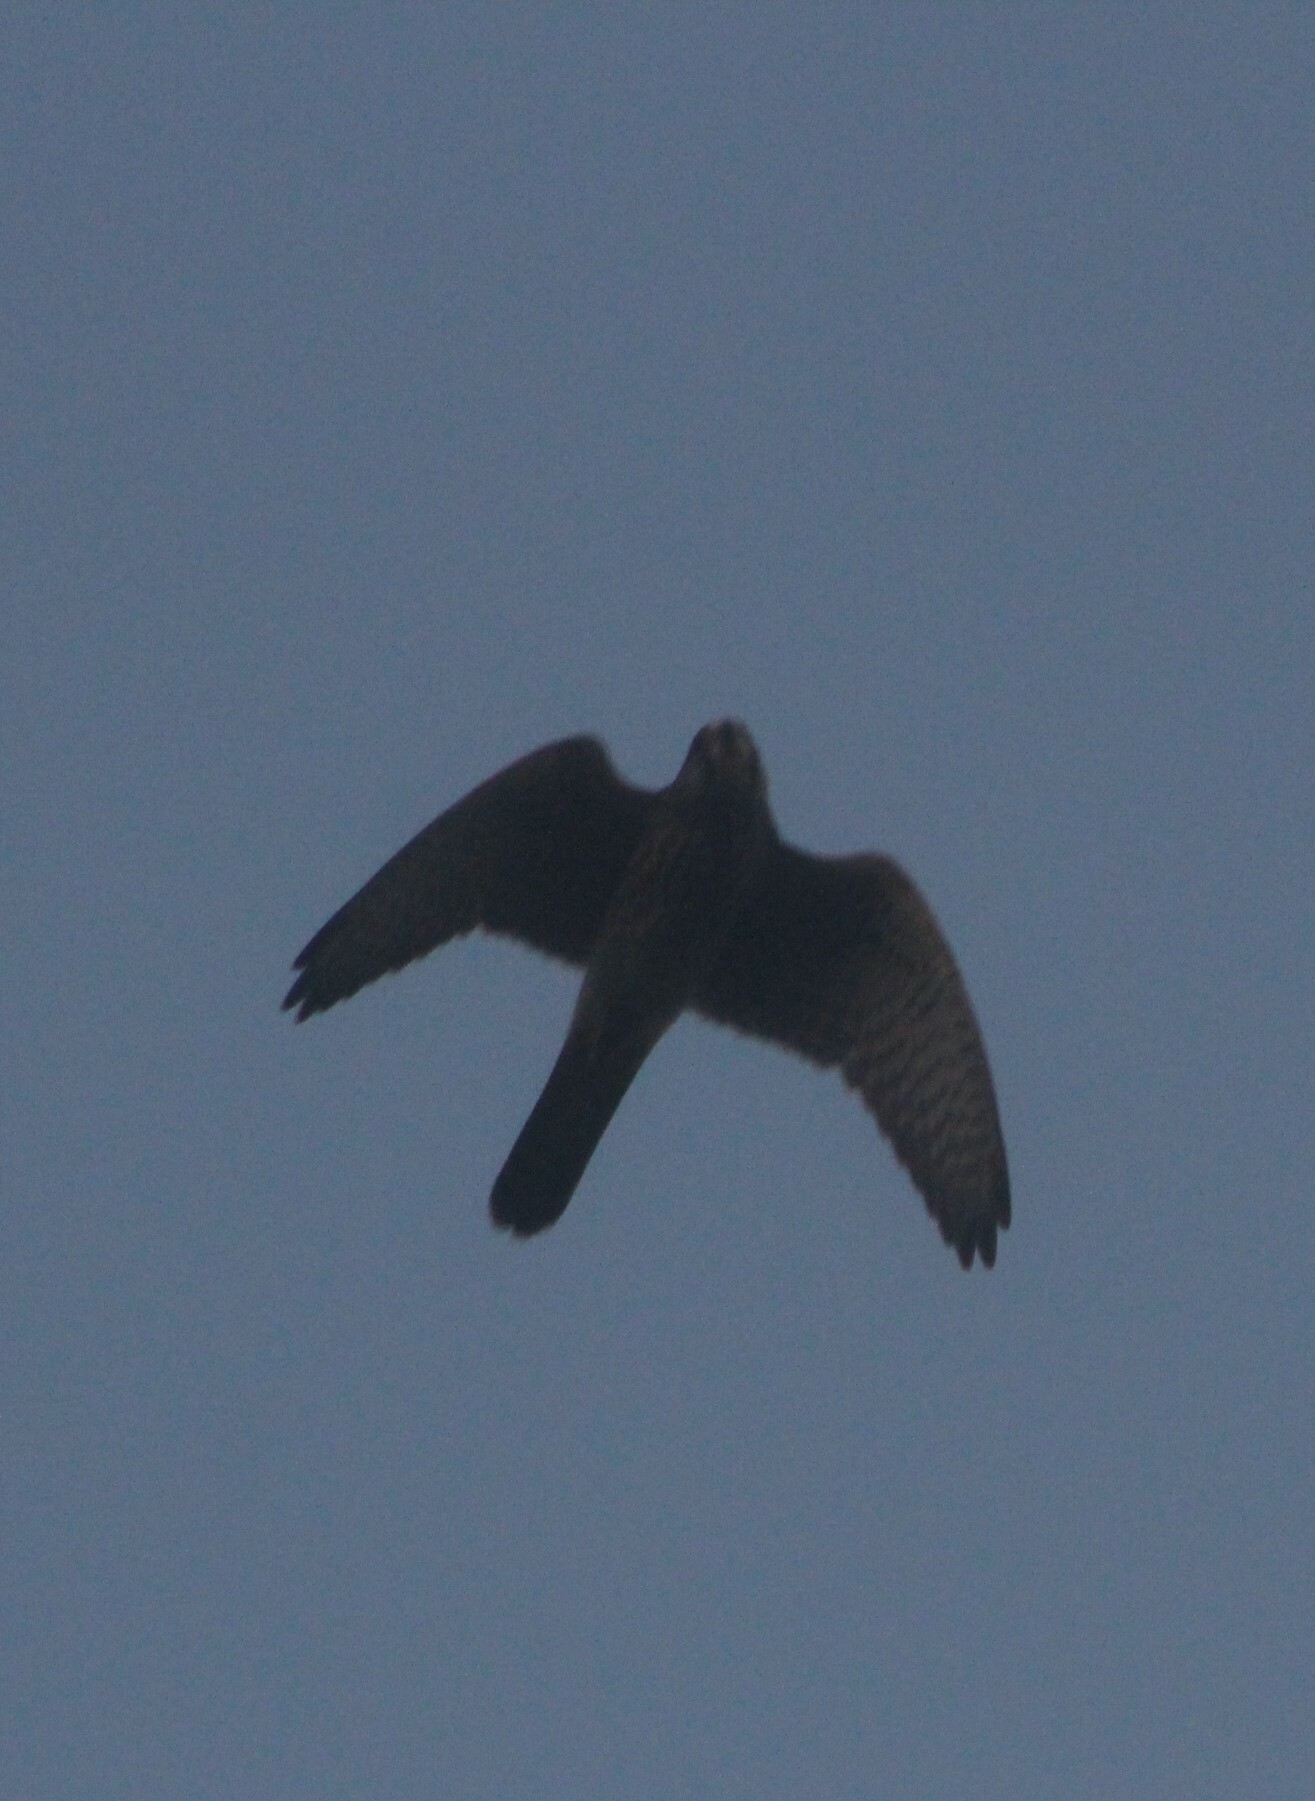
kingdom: Animalia
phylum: Chordata
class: Aves
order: Falconiformes
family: Falconidae
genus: Falco
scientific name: Falco tinnunculus
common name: Common kestrel
